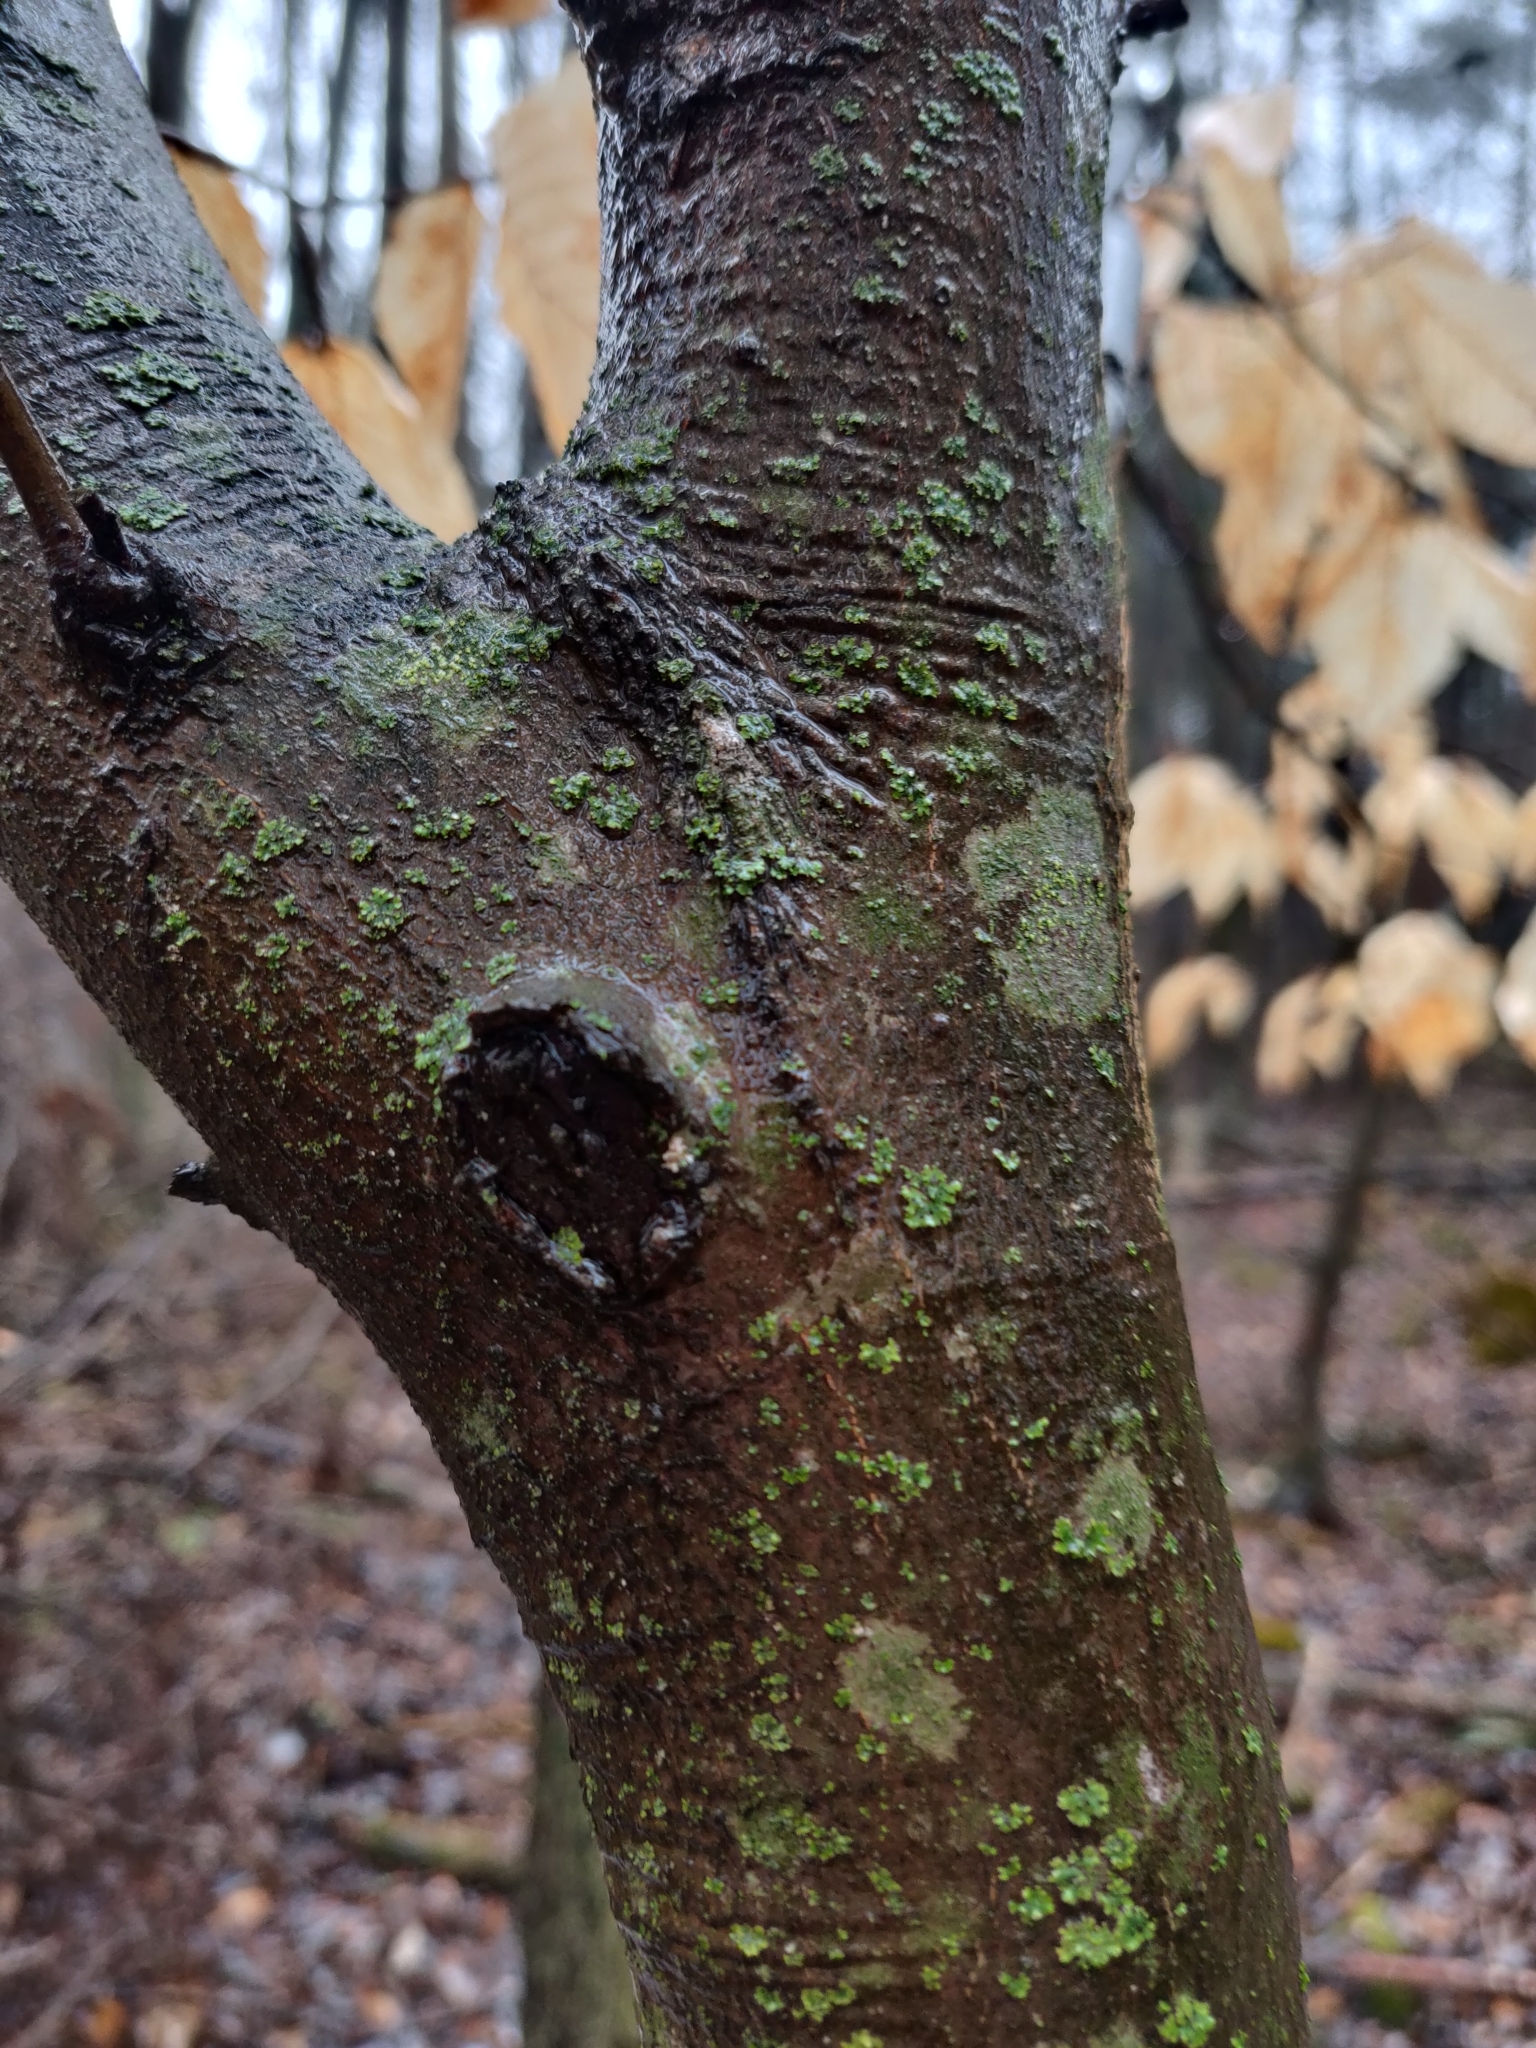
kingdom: Plantae
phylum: Tracheophyta
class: Magnoliopsida
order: Fagales
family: Fagaceae
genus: Fagus
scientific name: Fagus grandifolia
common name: American beech
